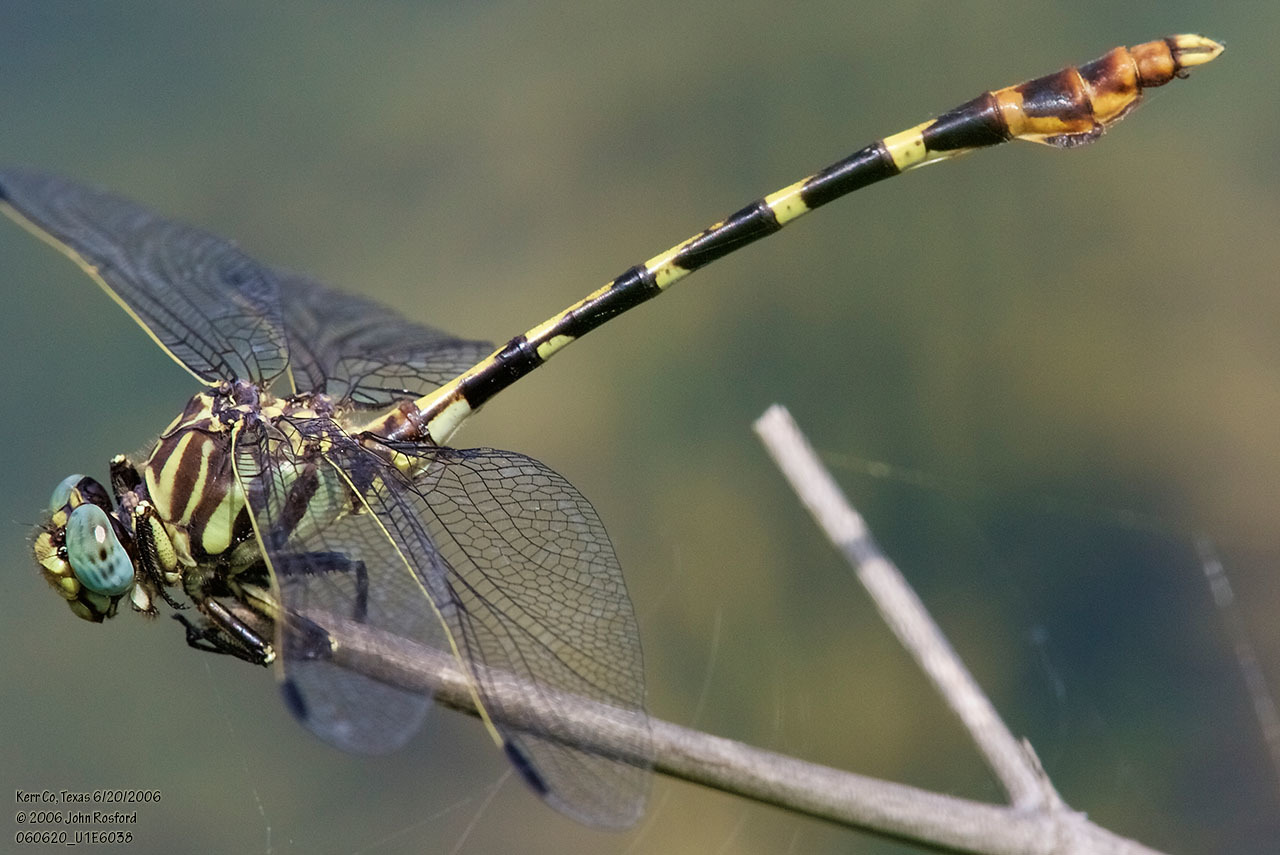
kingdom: Animalia
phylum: Arthropoda
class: Insecta
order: Odonata
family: Gomphidae
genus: Phyllogomphoides
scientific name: Phyllogomphoides stigmatus
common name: Four-striped leaftail
